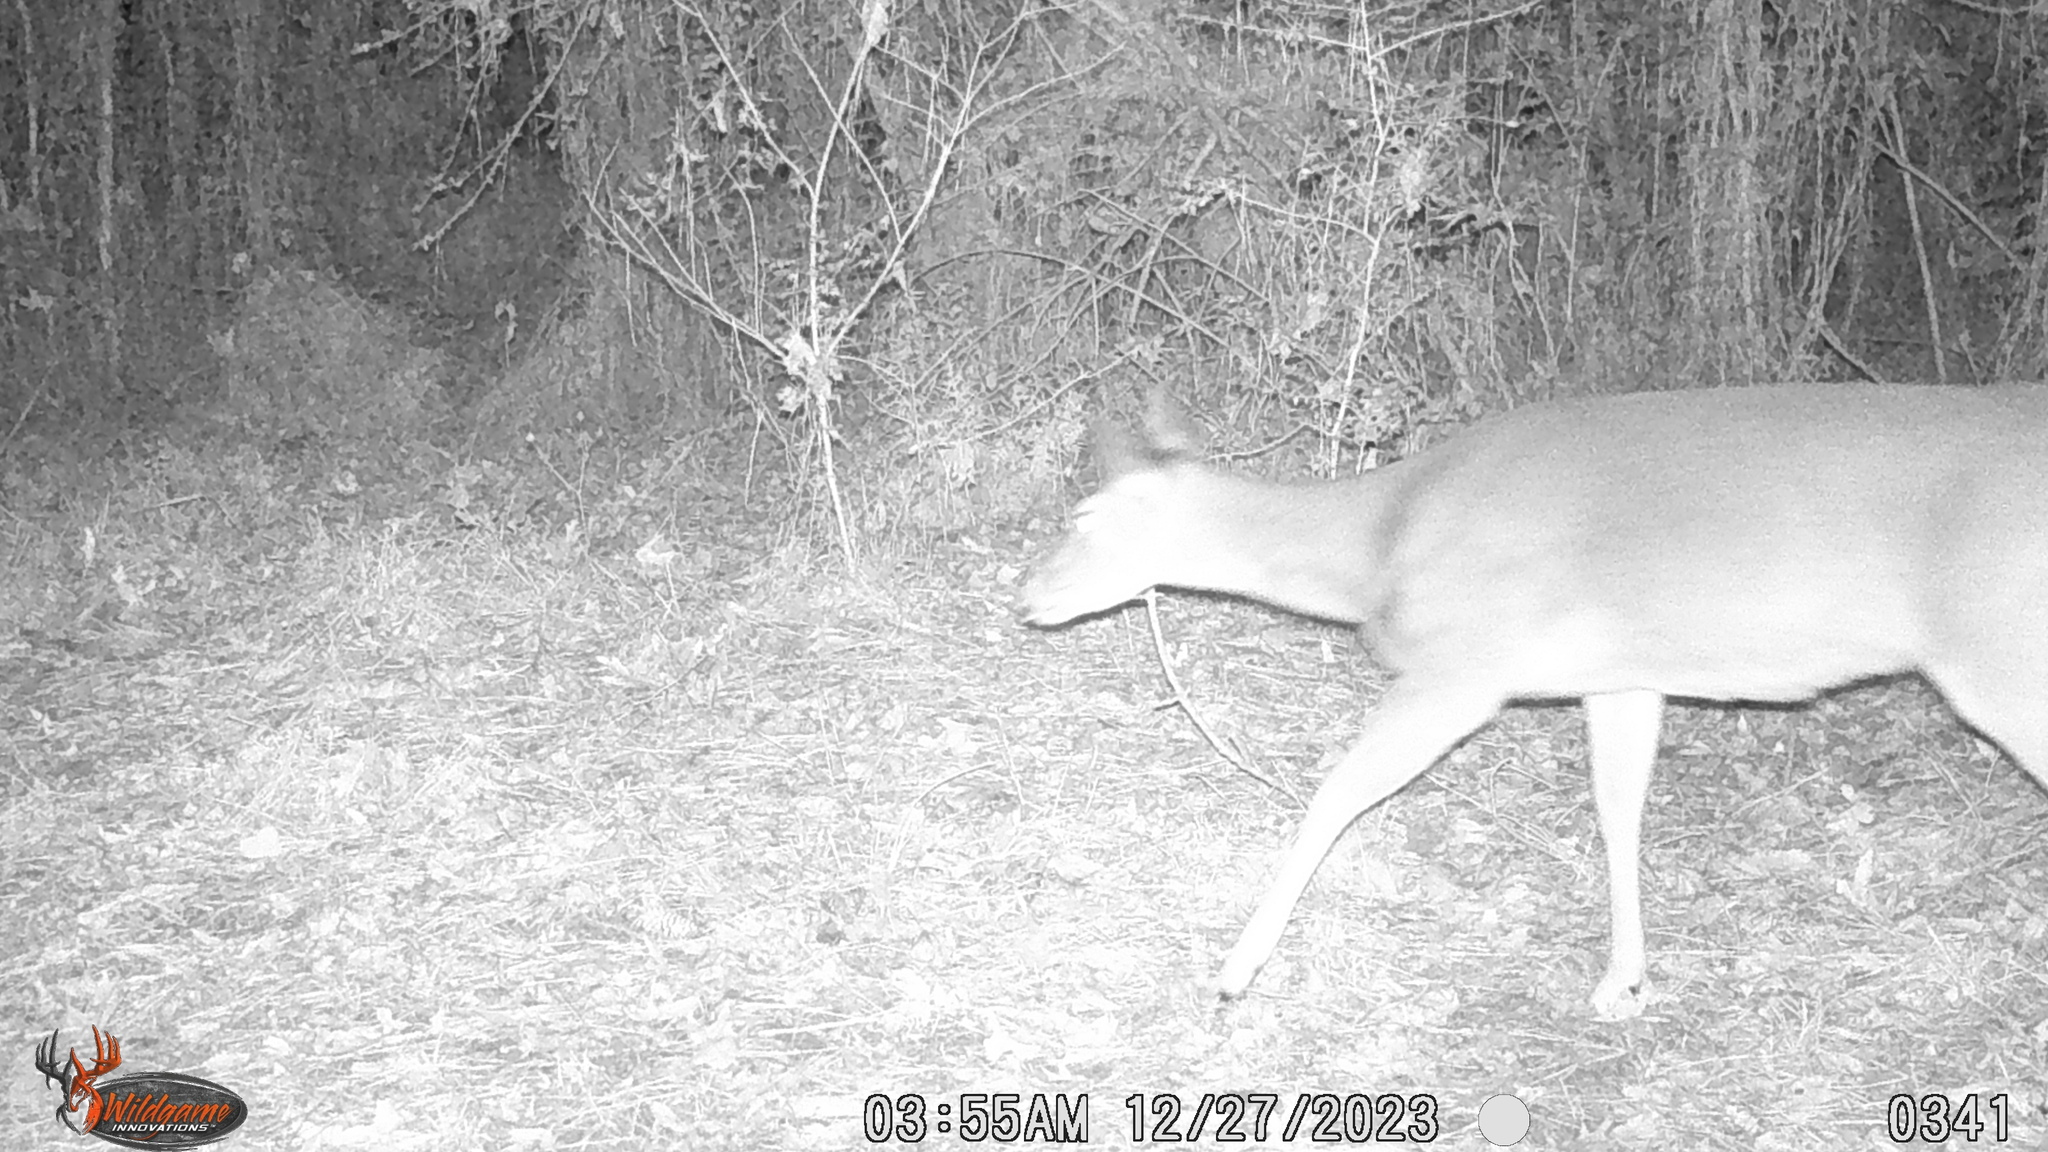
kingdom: Animalia
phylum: Chordata
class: Mammalia
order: Artiodactyla
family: Cervidae
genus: Odocoileus
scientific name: Odocoileus virginianus
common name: White-tailed deer
